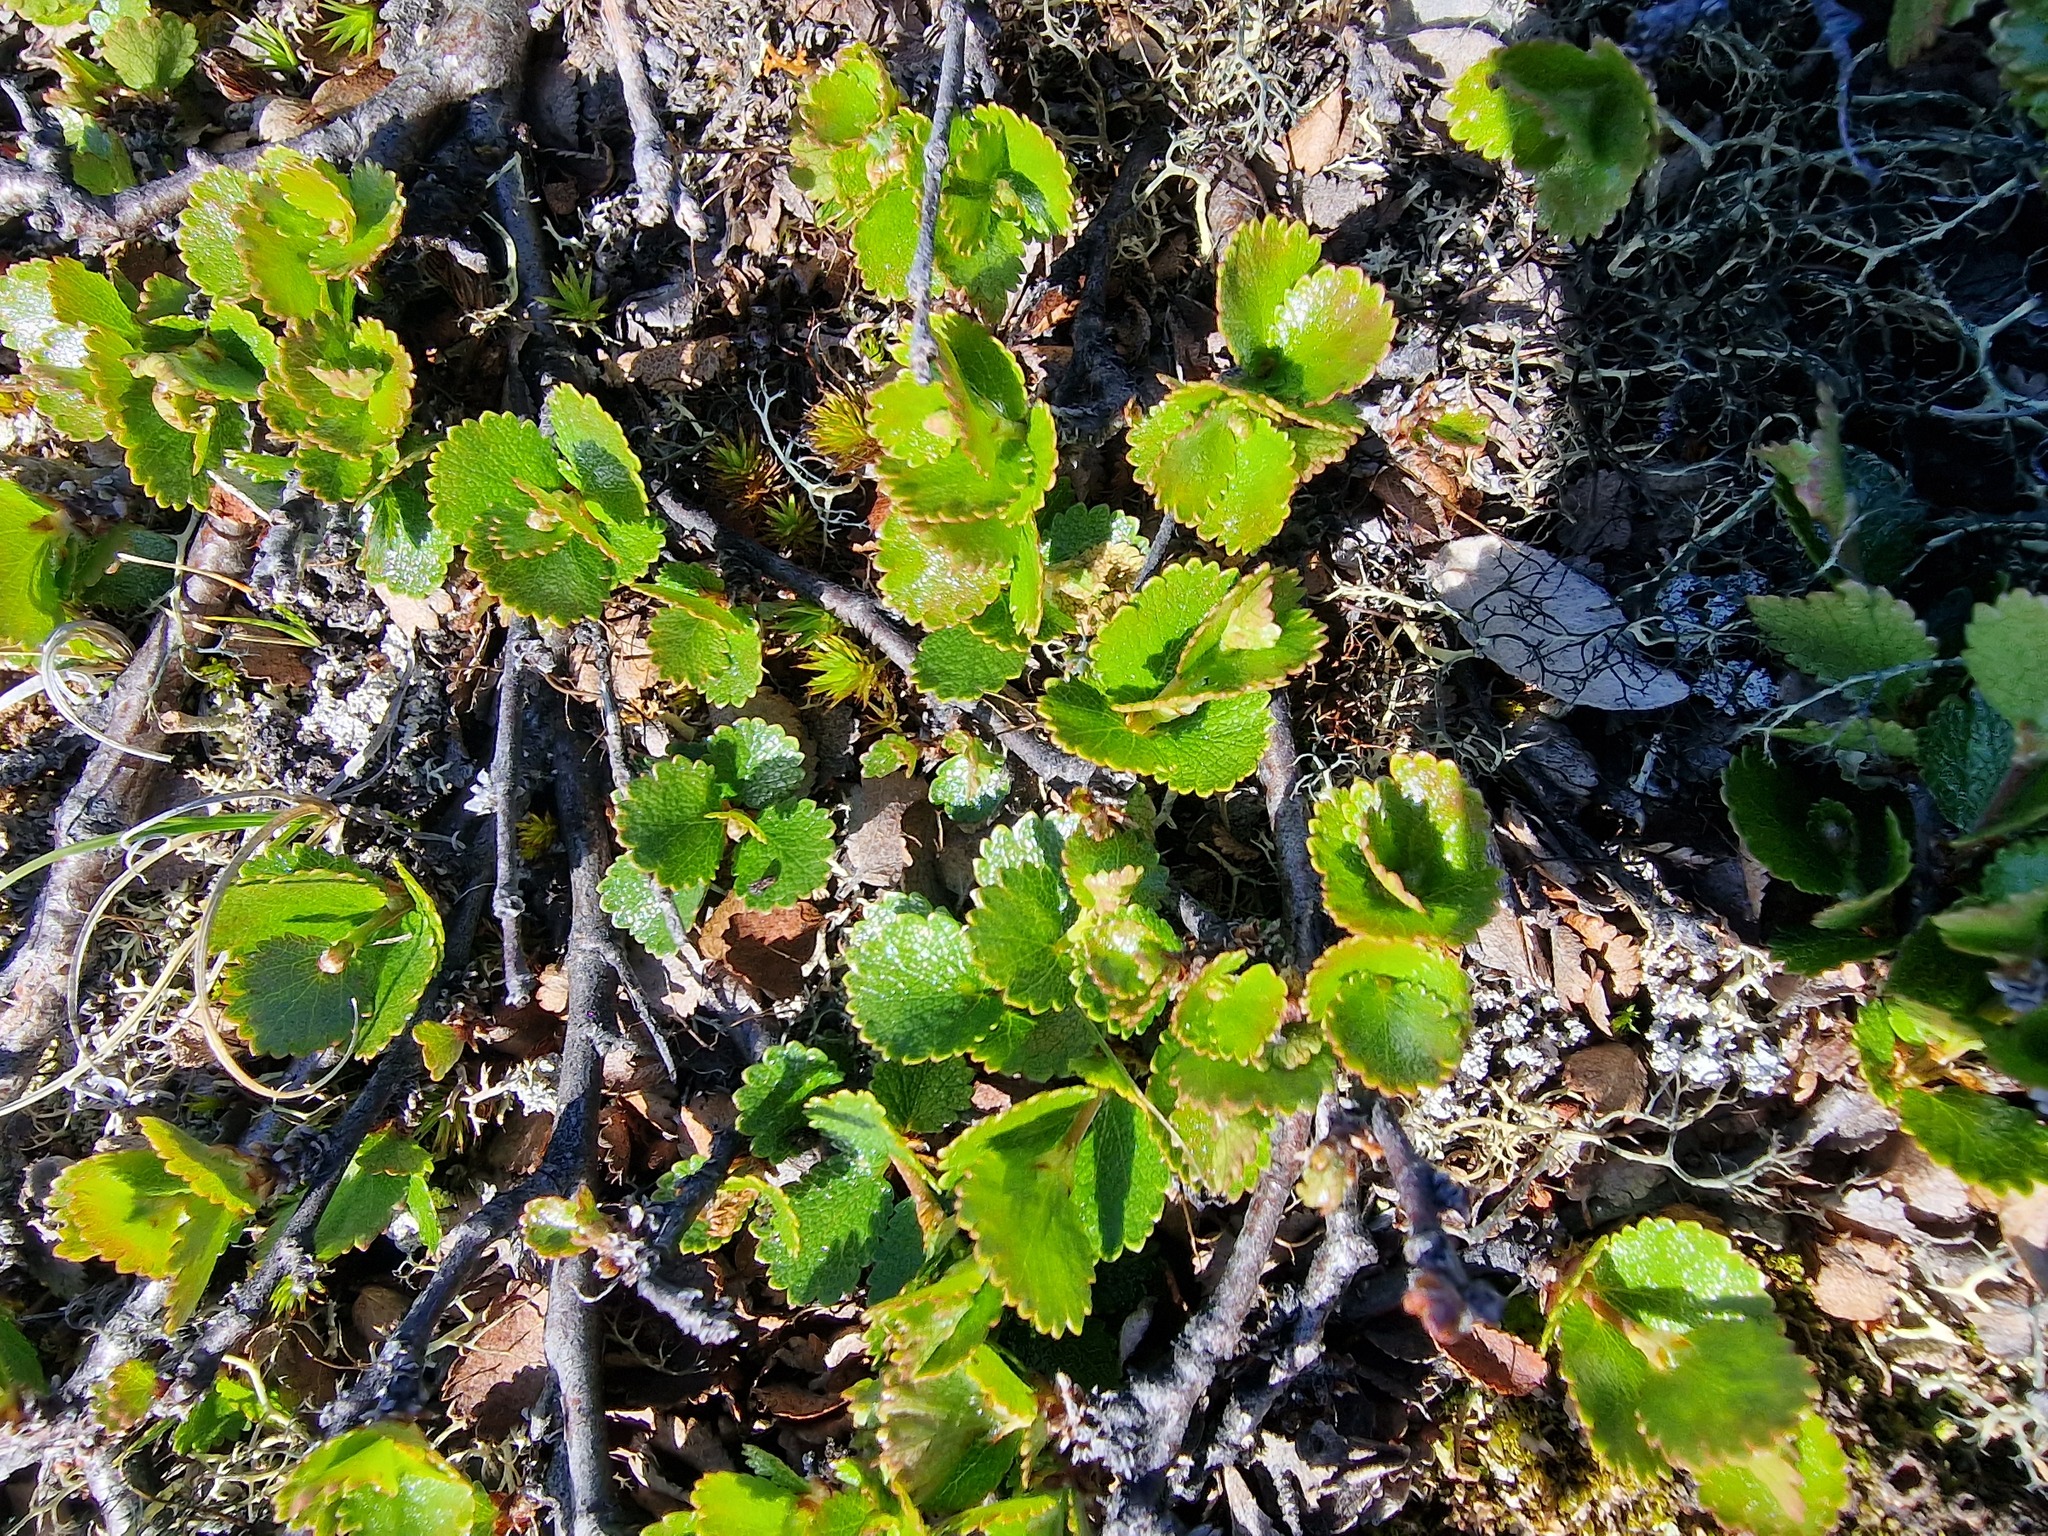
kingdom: Plantae
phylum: Tracheophyta
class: Magnoliopsida
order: Fagales
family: Betulaceae
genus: Betula
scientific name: Betula nana
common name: Arctic dwarf birch
